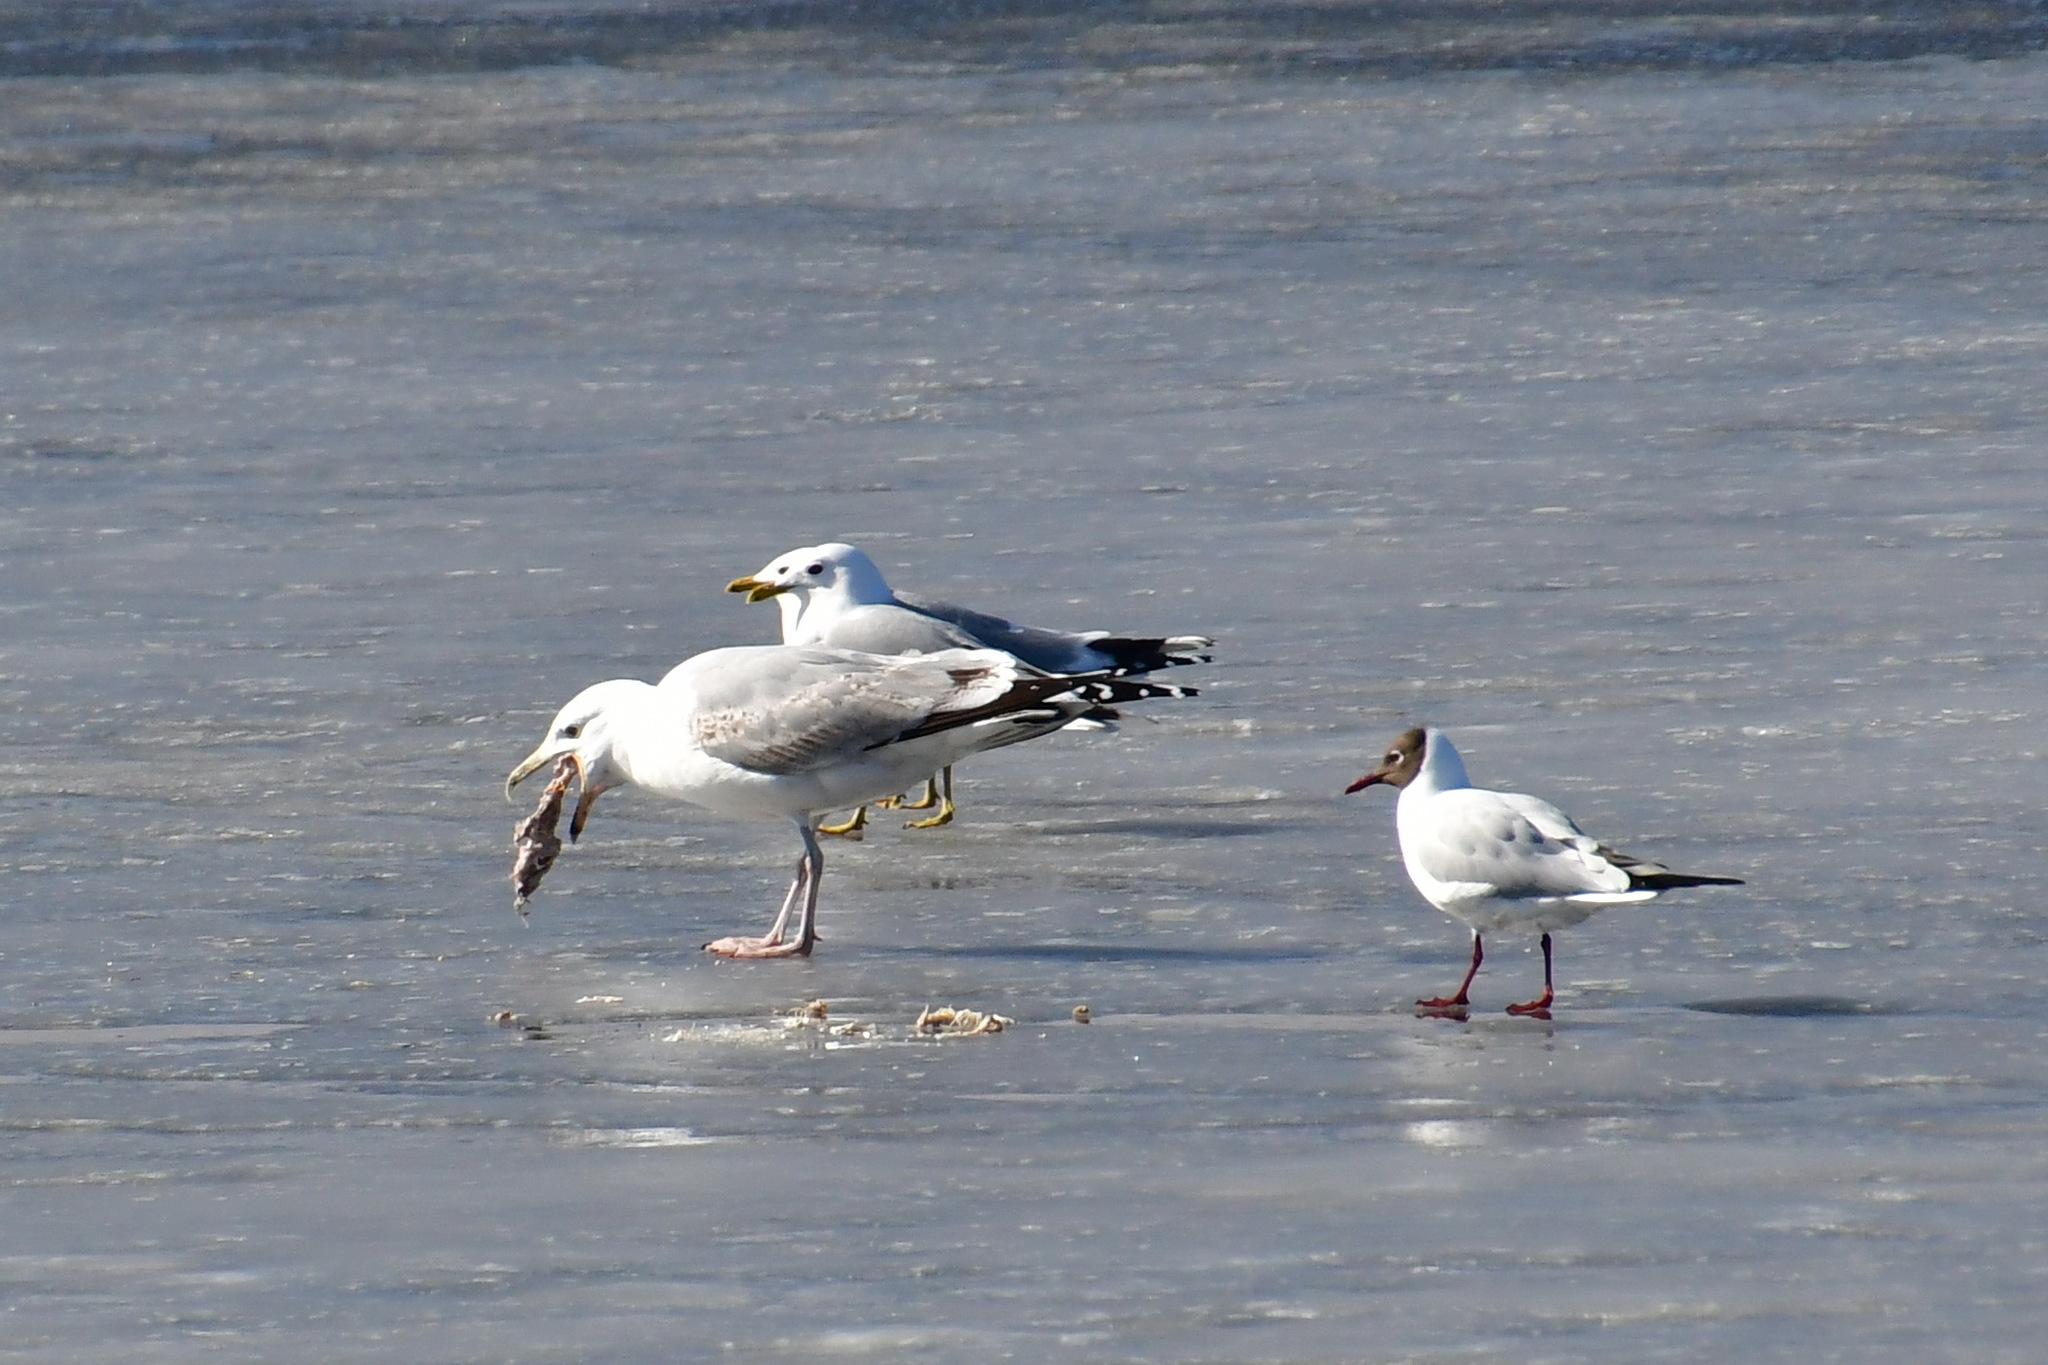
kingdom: Animalia
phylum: Chordata
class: Aves
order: Charadriiformes
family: Laridae
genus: Larus
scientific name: Larus cachinnans
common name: Caspian gull
